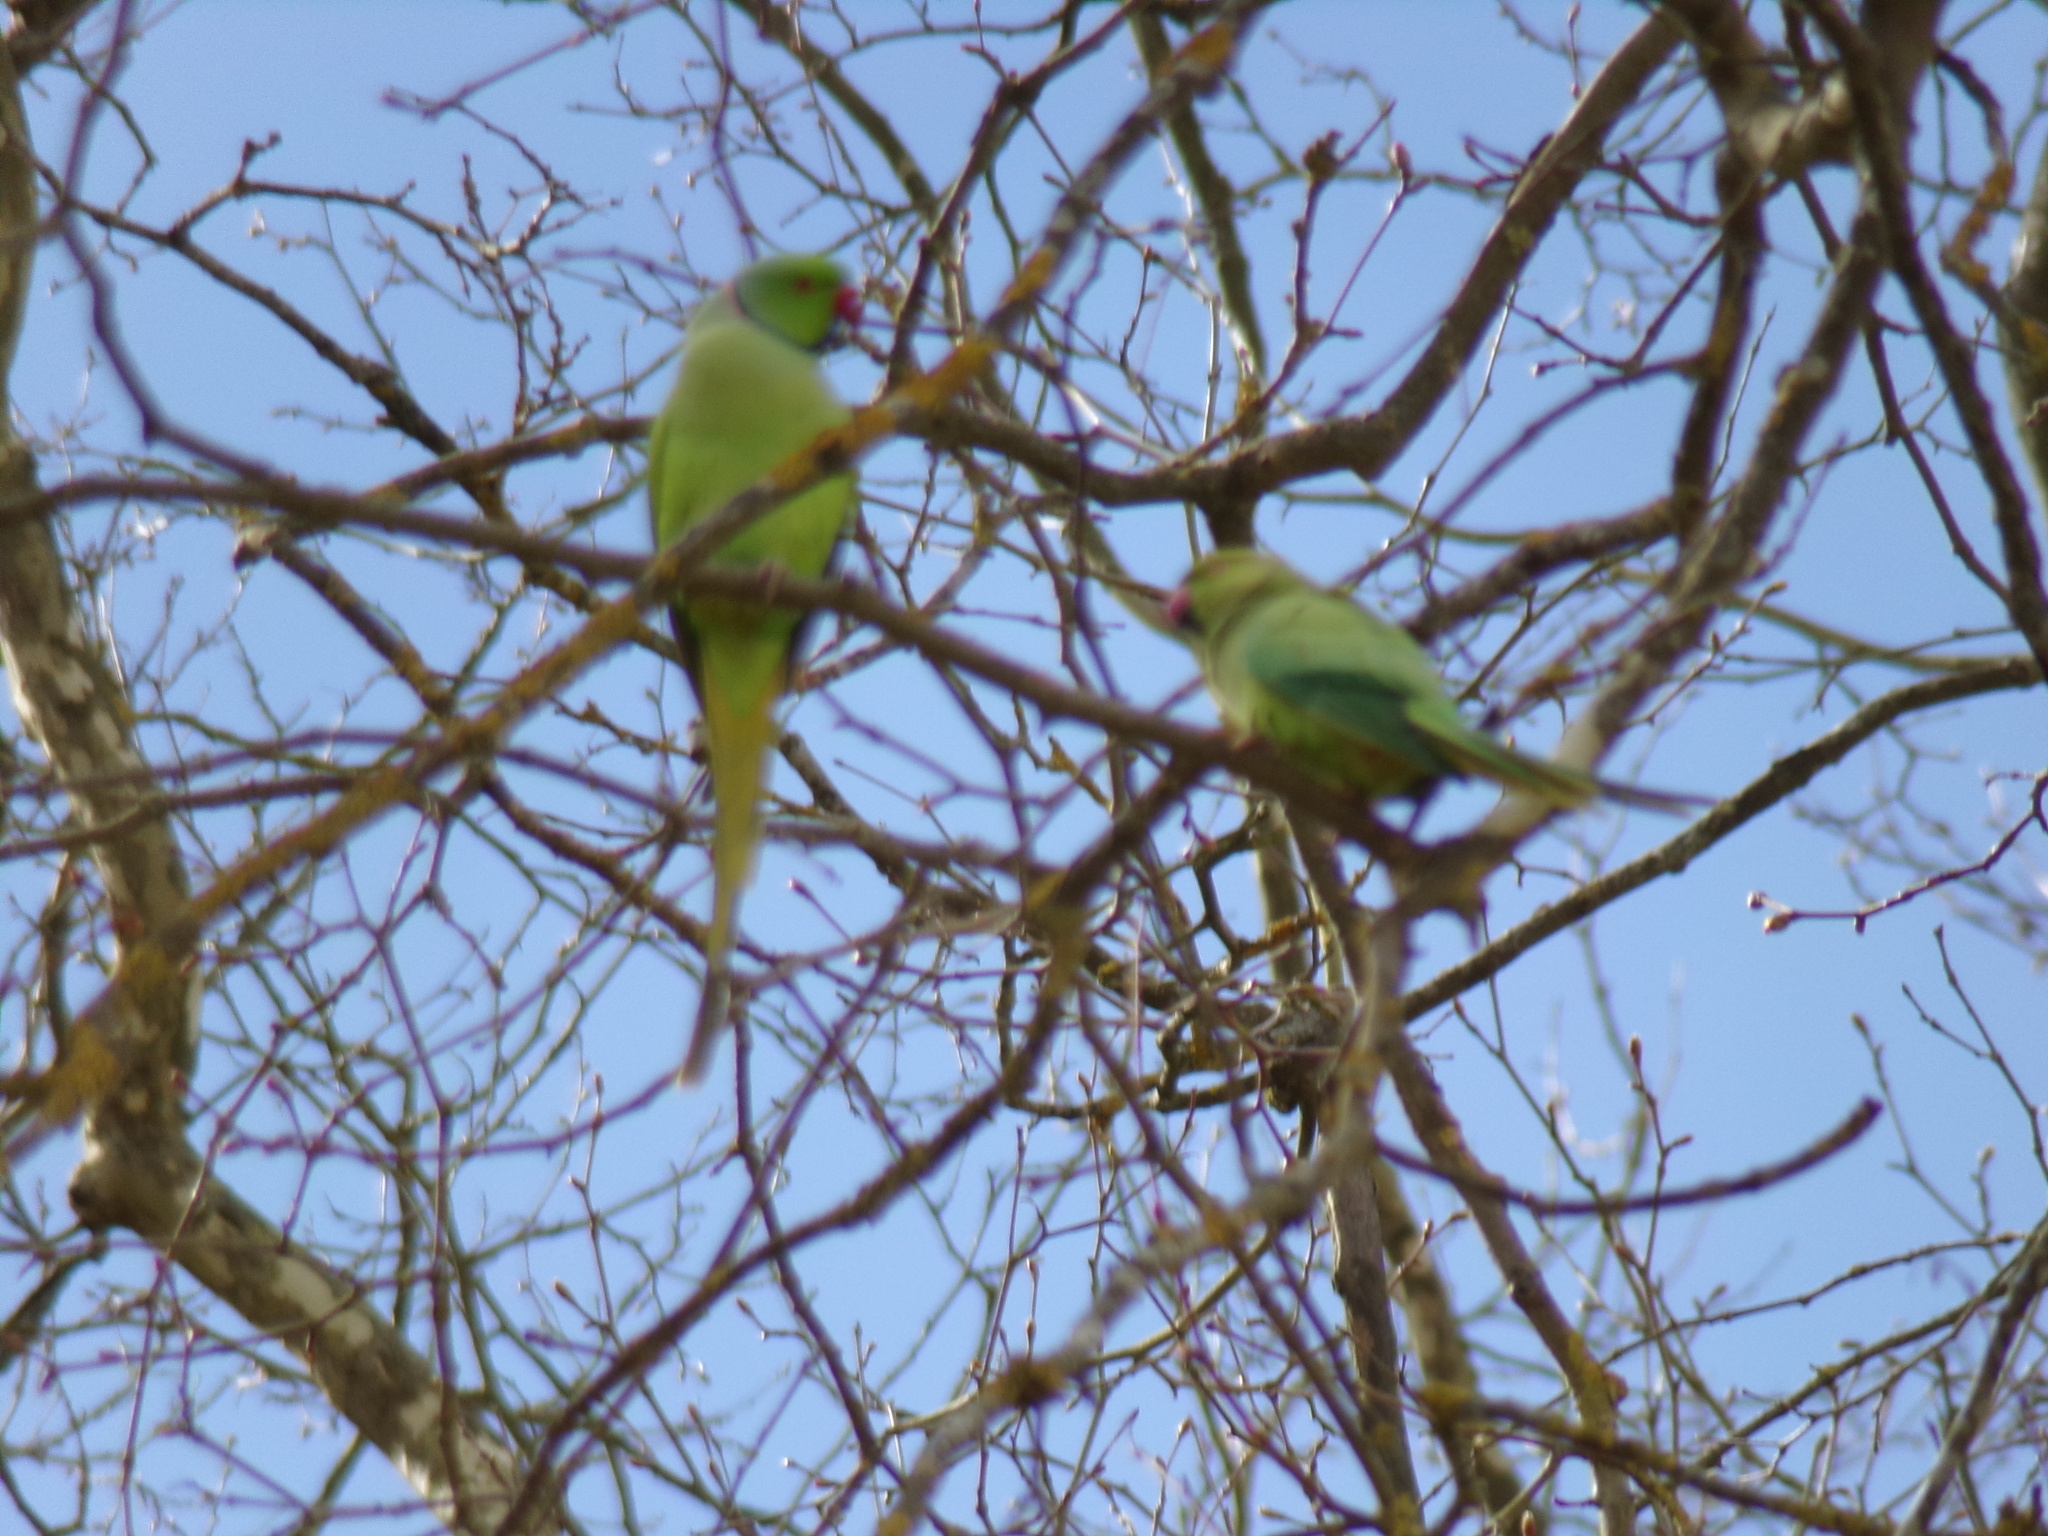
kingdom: Animalia
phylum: Chordata
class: Aves
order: Psittaciformes
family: Psittacidae
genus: Psittacula
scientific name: Psittacula krameri
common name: Rose-ringed parakeet
